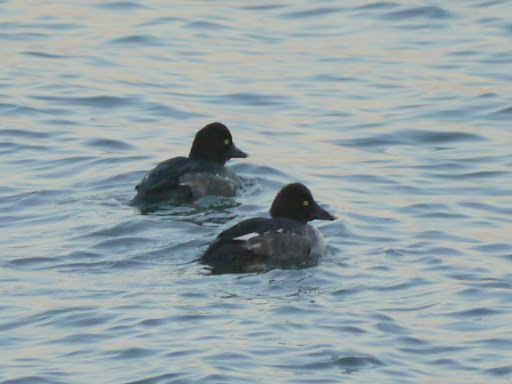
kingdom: Animalia
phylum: Chordata
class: Aves
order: Anseriformes
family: Anatidae
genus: Bucephala
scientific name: Bucephala clangula
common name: Common goldeneye
